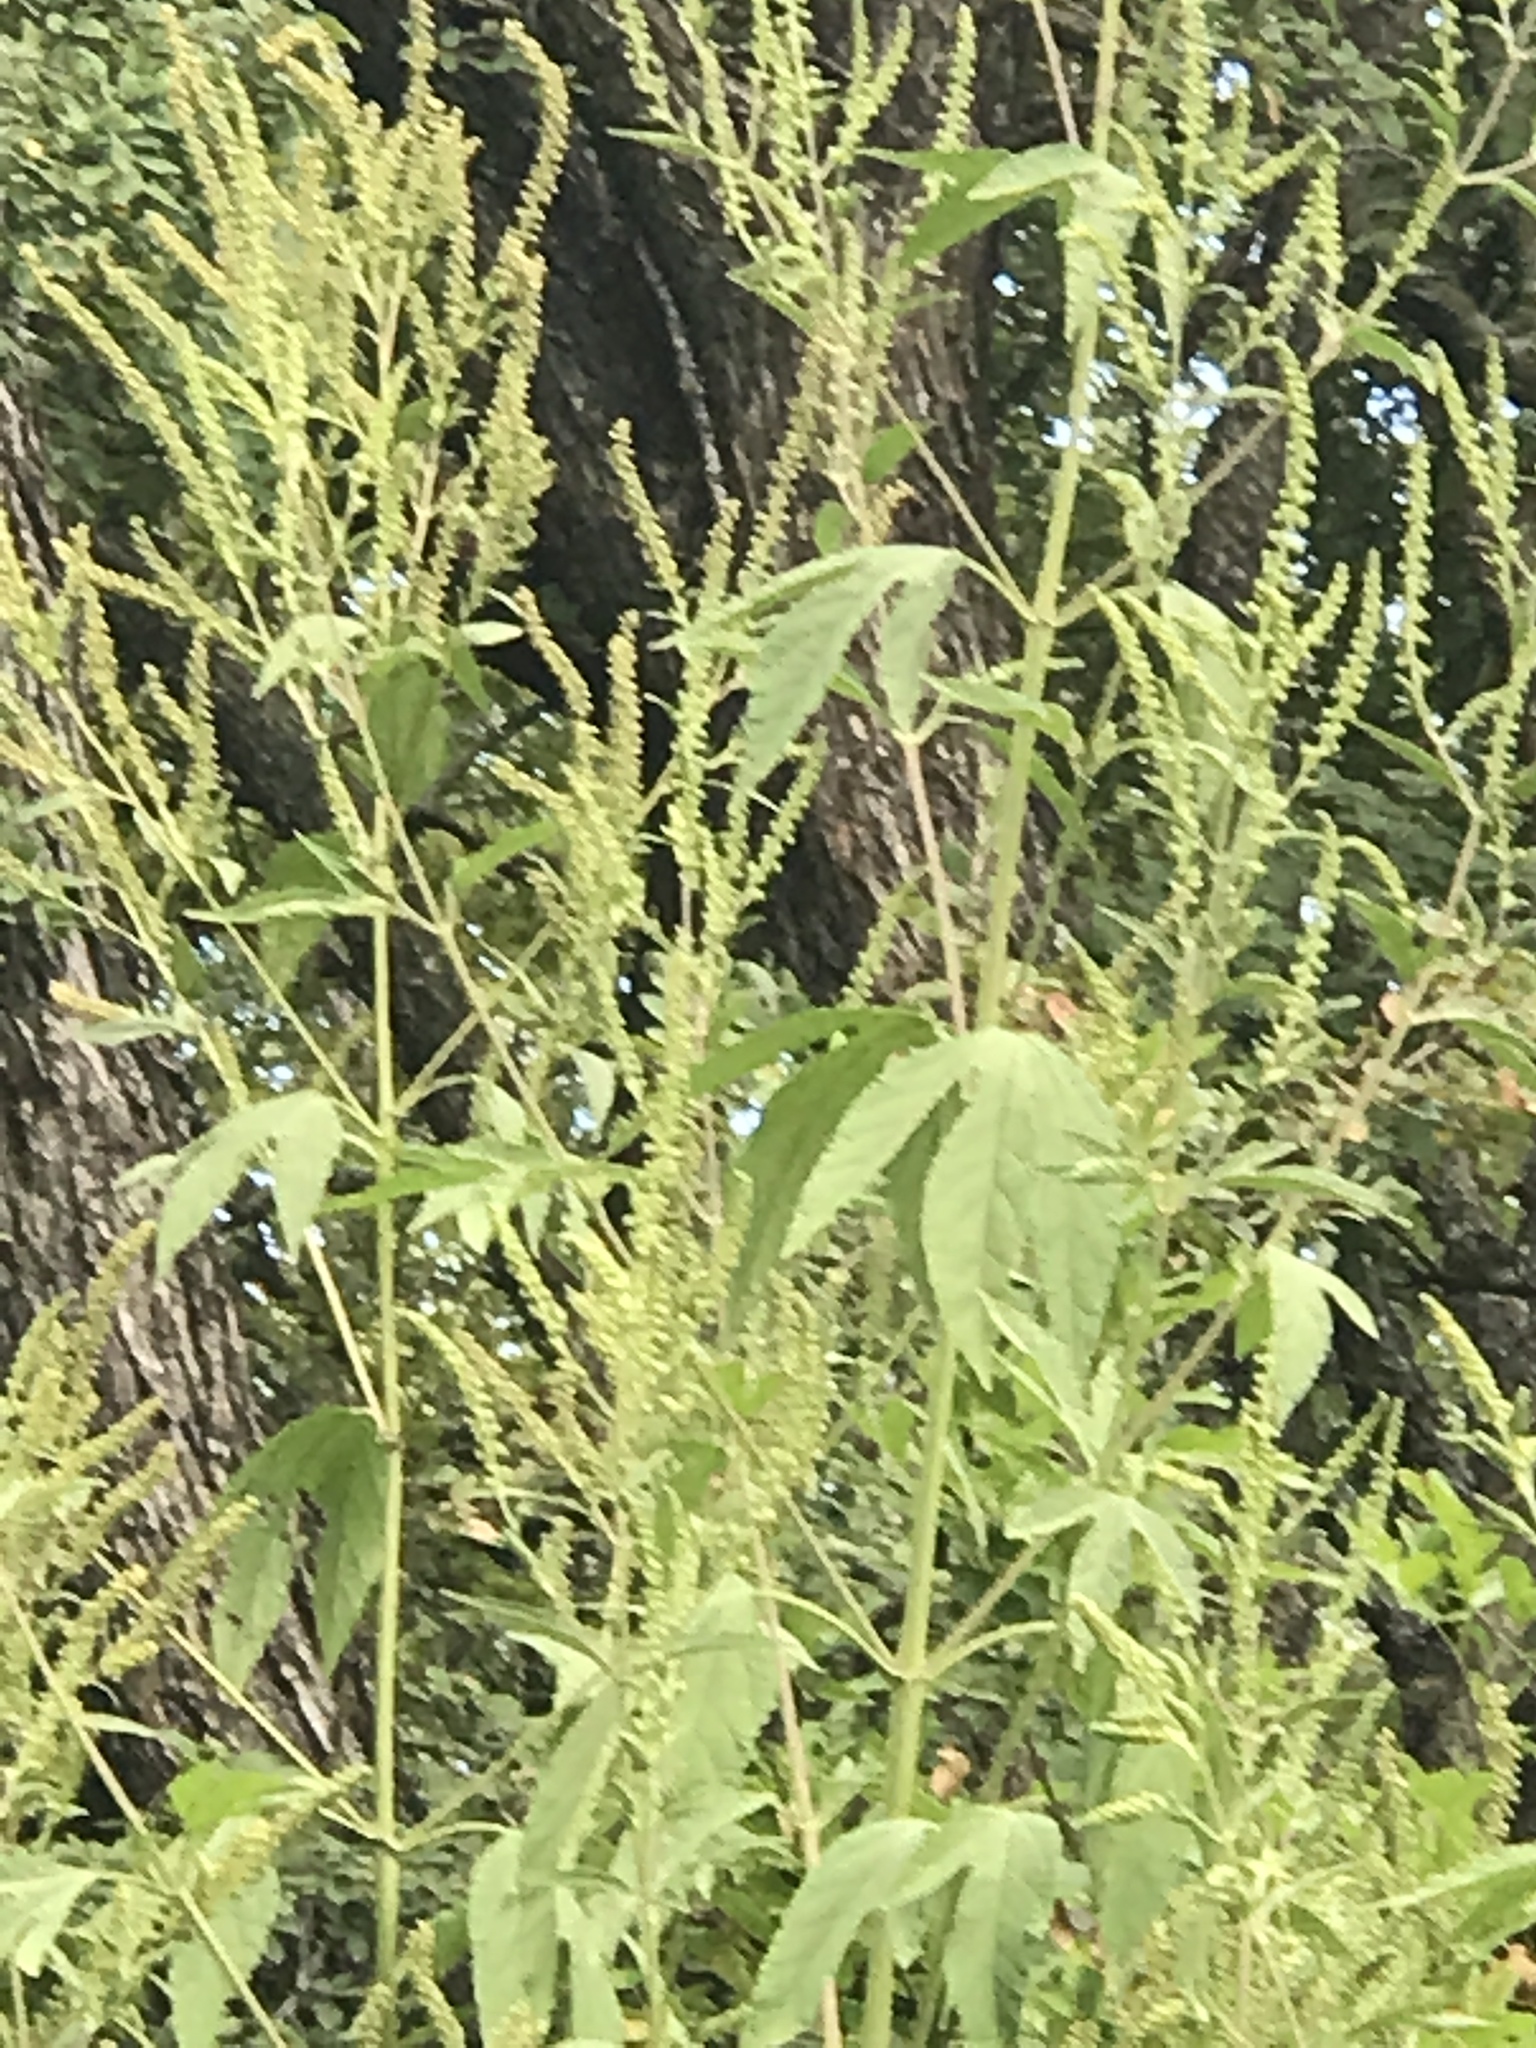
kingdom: Plantae
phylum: Tracheophyta
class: Magnoliopsida
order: Asterales
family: Asteraceae
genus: Ambrosia
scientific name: Ambrosia trifida
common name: Giant ragweed
